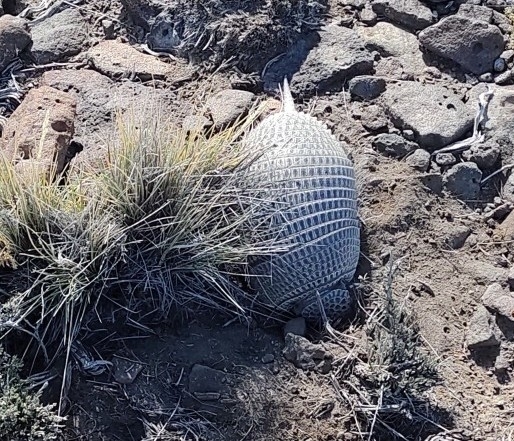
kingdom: Animalia
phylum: Chordata
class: Mammalia
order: Cingulata
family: Dasypodidae
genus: Zaedyus
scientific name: Zaedyus pichiy
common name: Pichi
